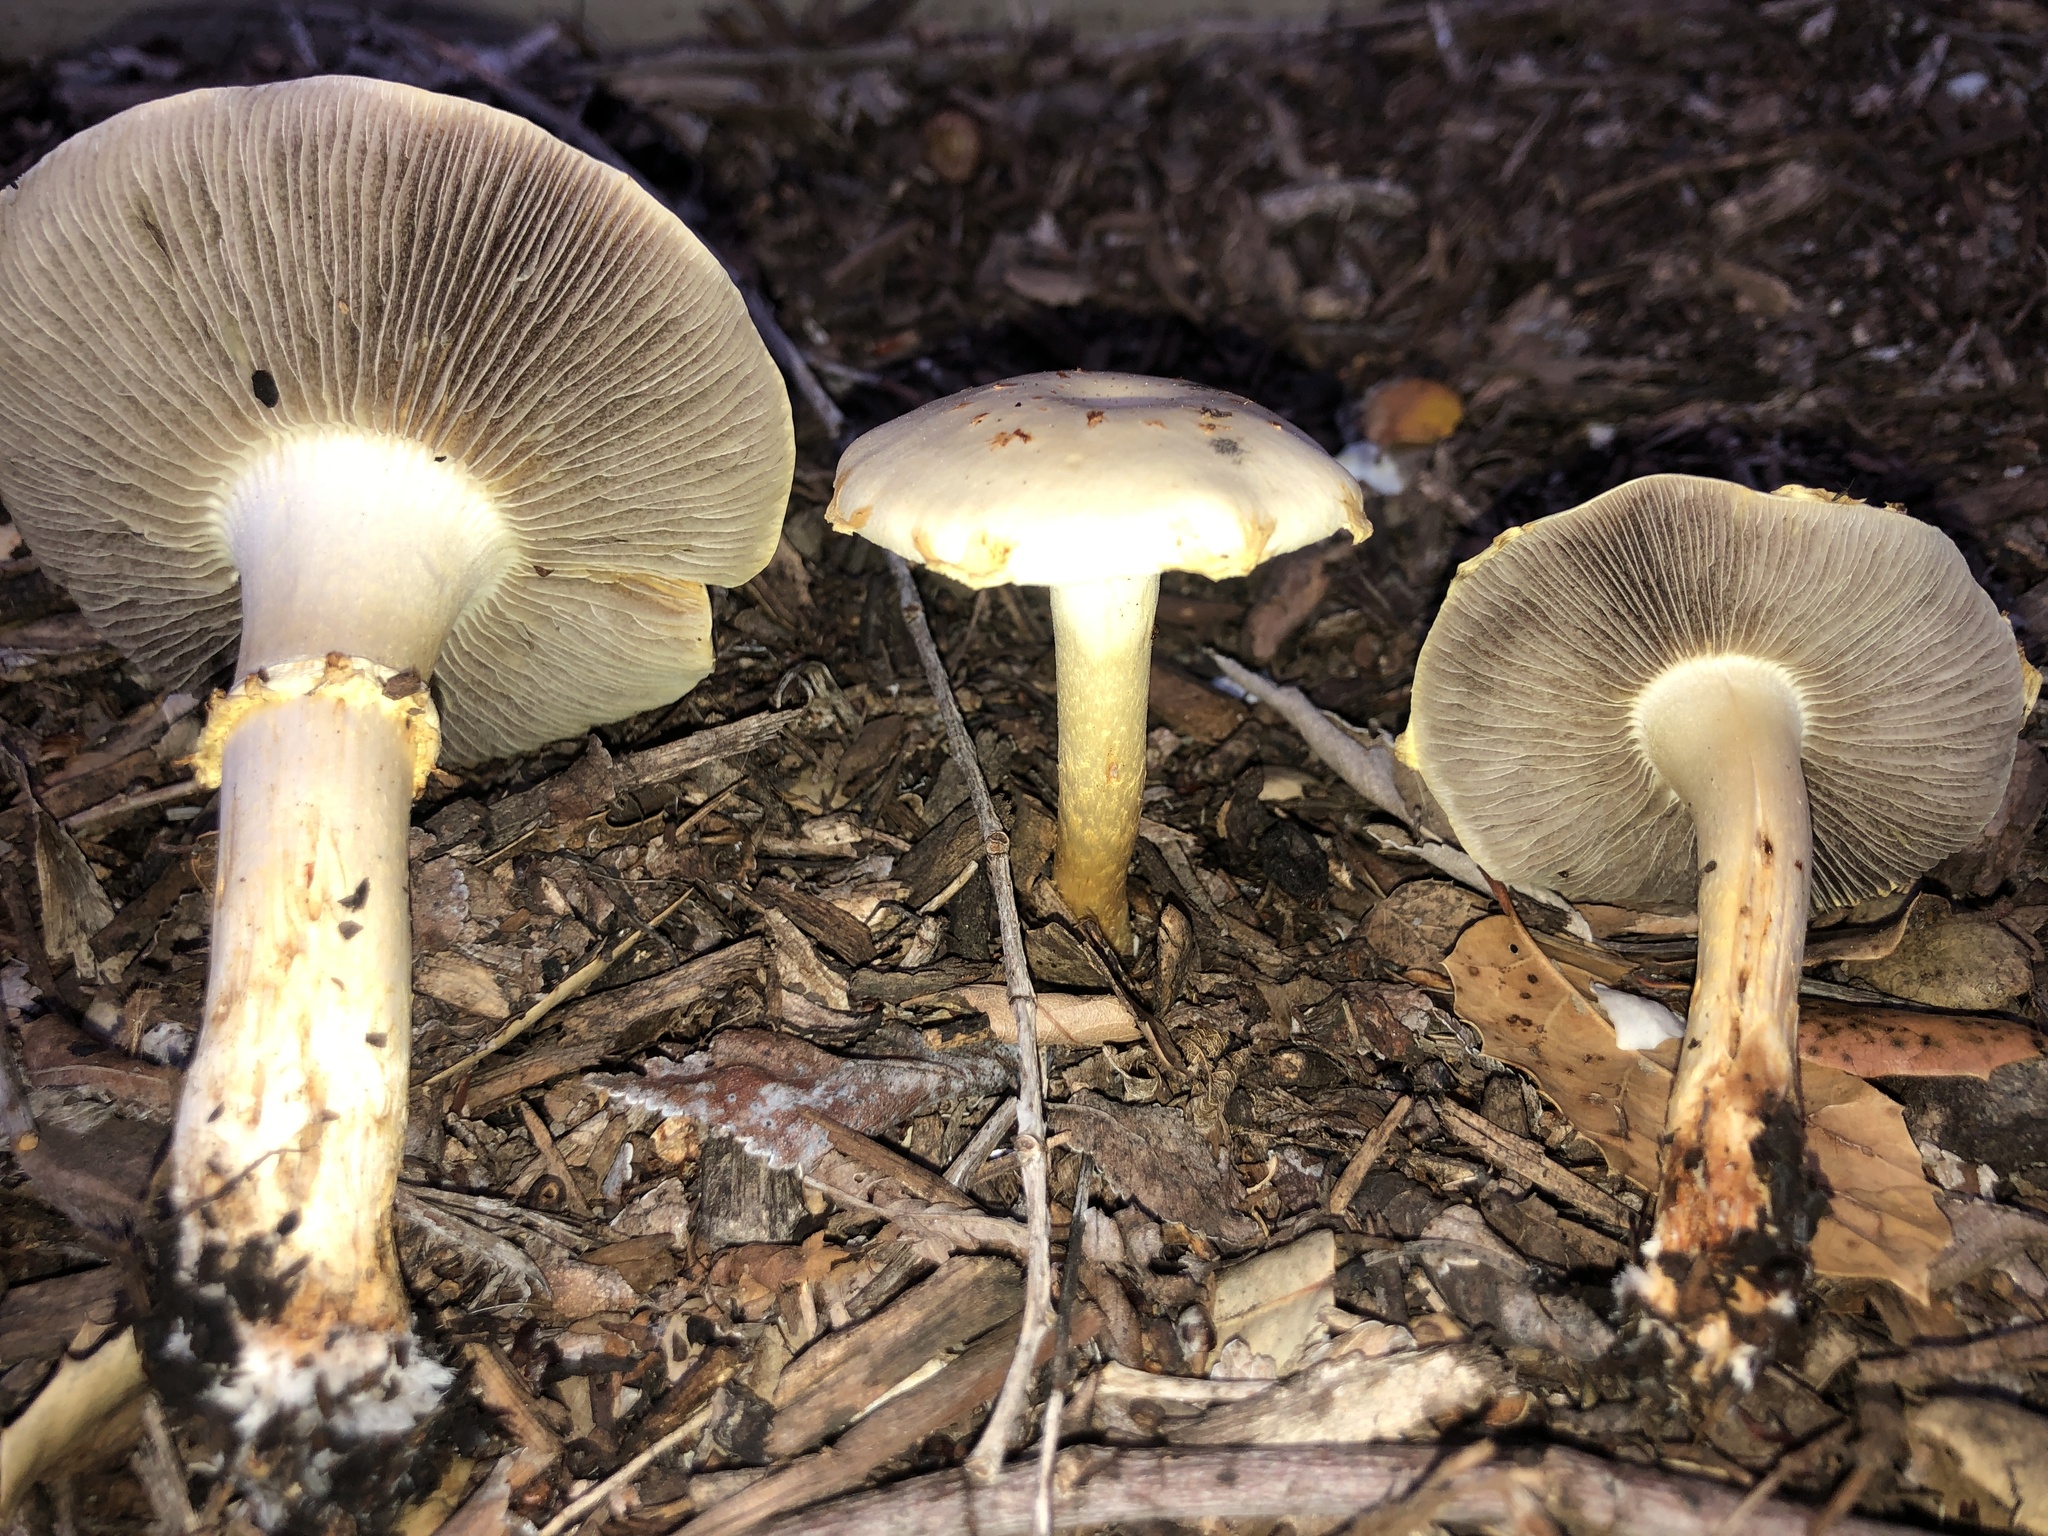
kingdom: Fungi
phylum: Basidiomycota
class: Agaricomycetes
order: Agaricales
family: Strophariaceae
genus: Leratiomyces
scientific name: Leratiomyces percevalii
